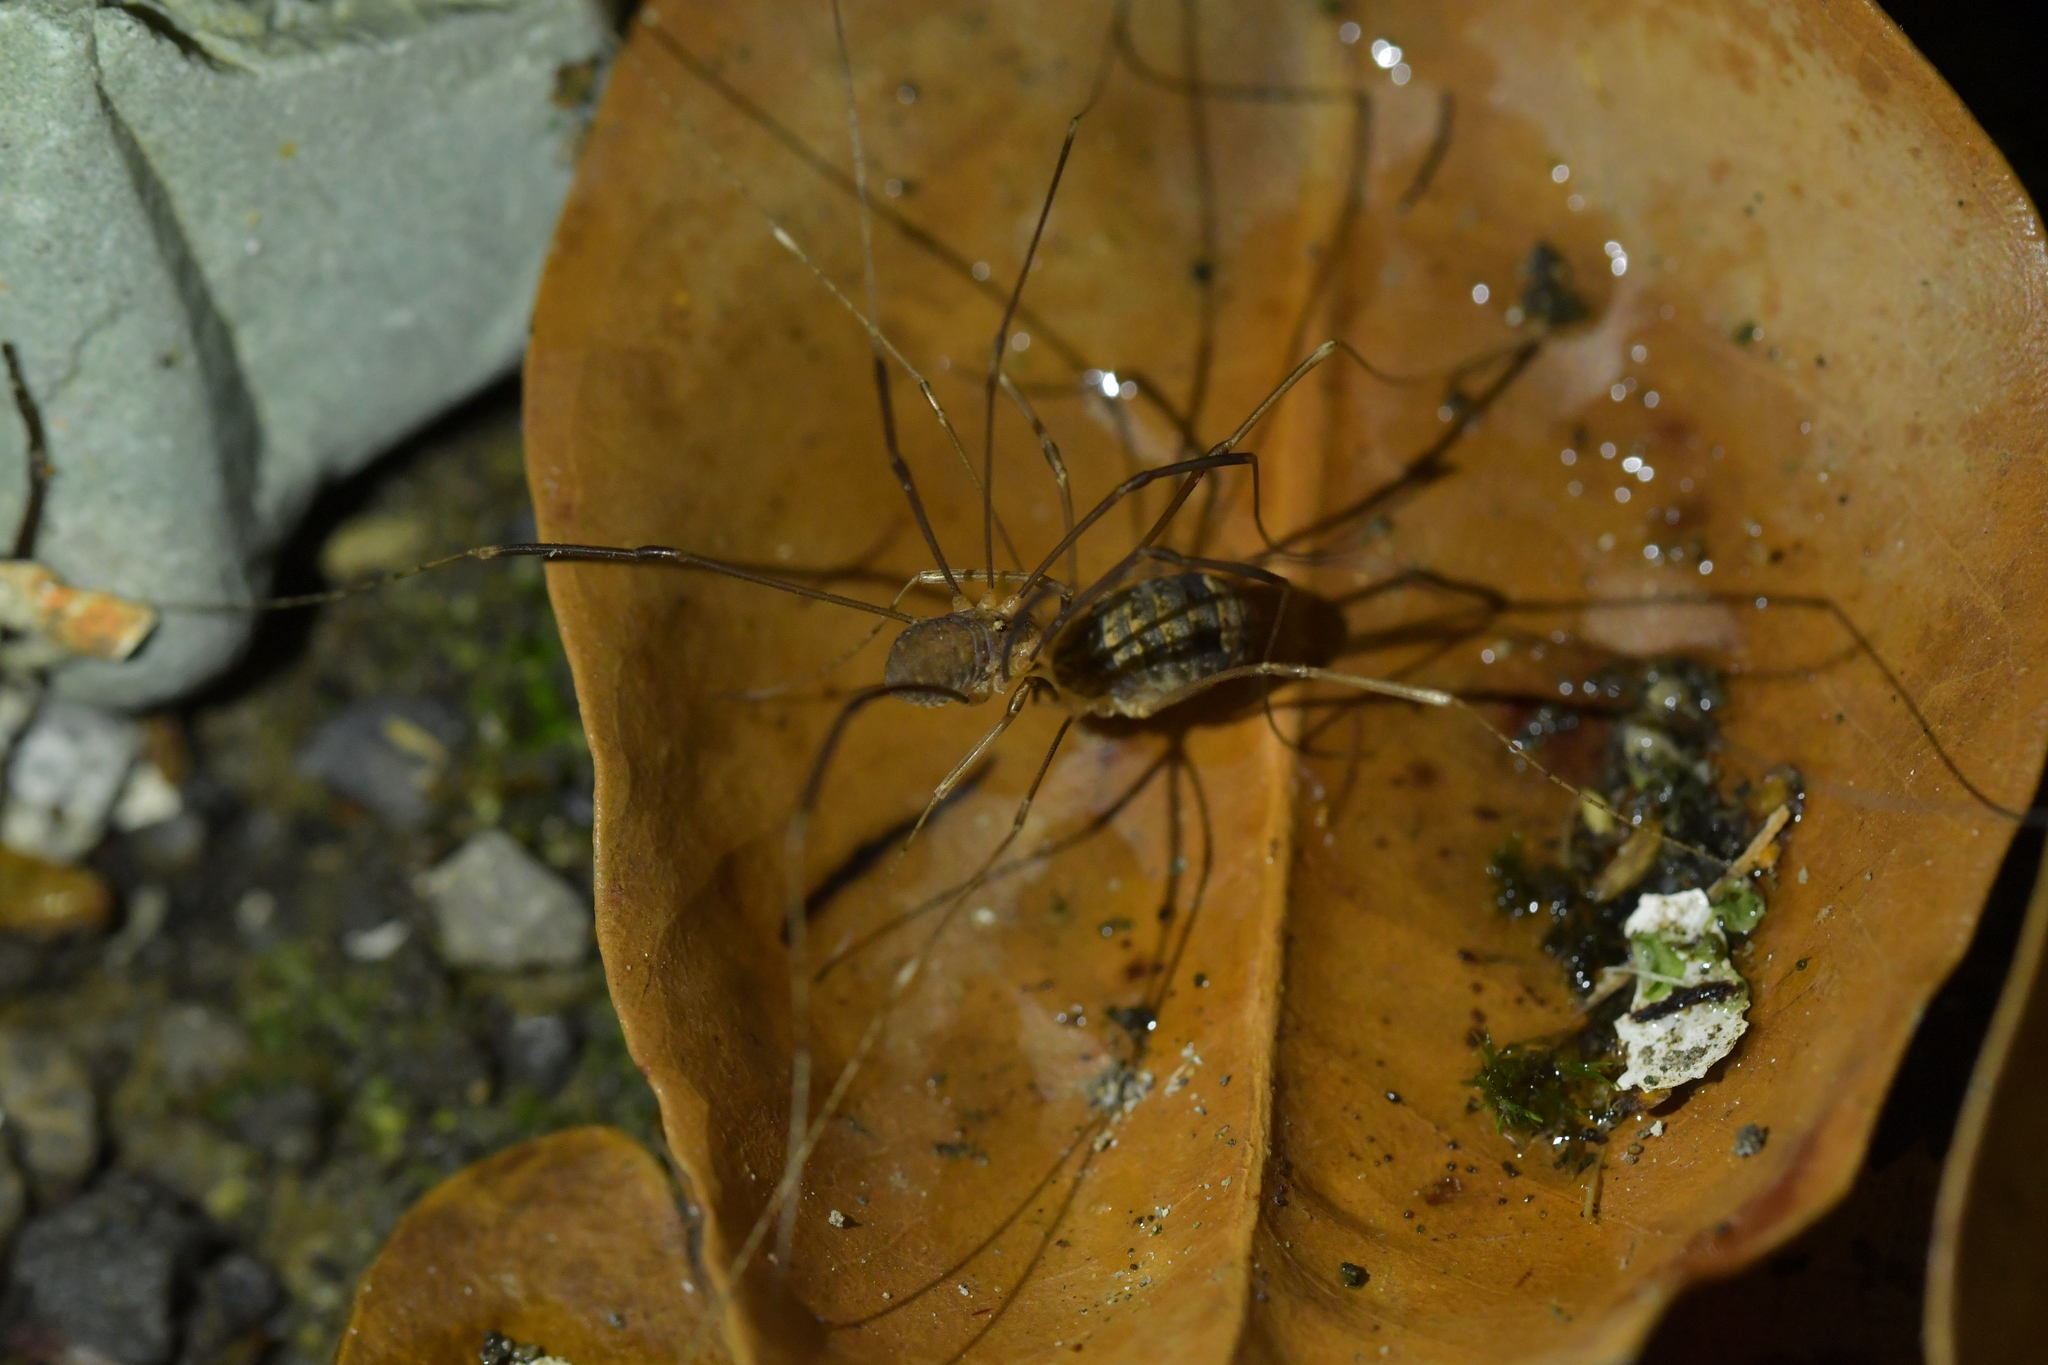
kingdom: Animalia
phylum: Arthropoda
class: Arachnida
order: Opiliones
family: Sclerosomatidae
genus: Nelima
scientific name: Nelima doriae
